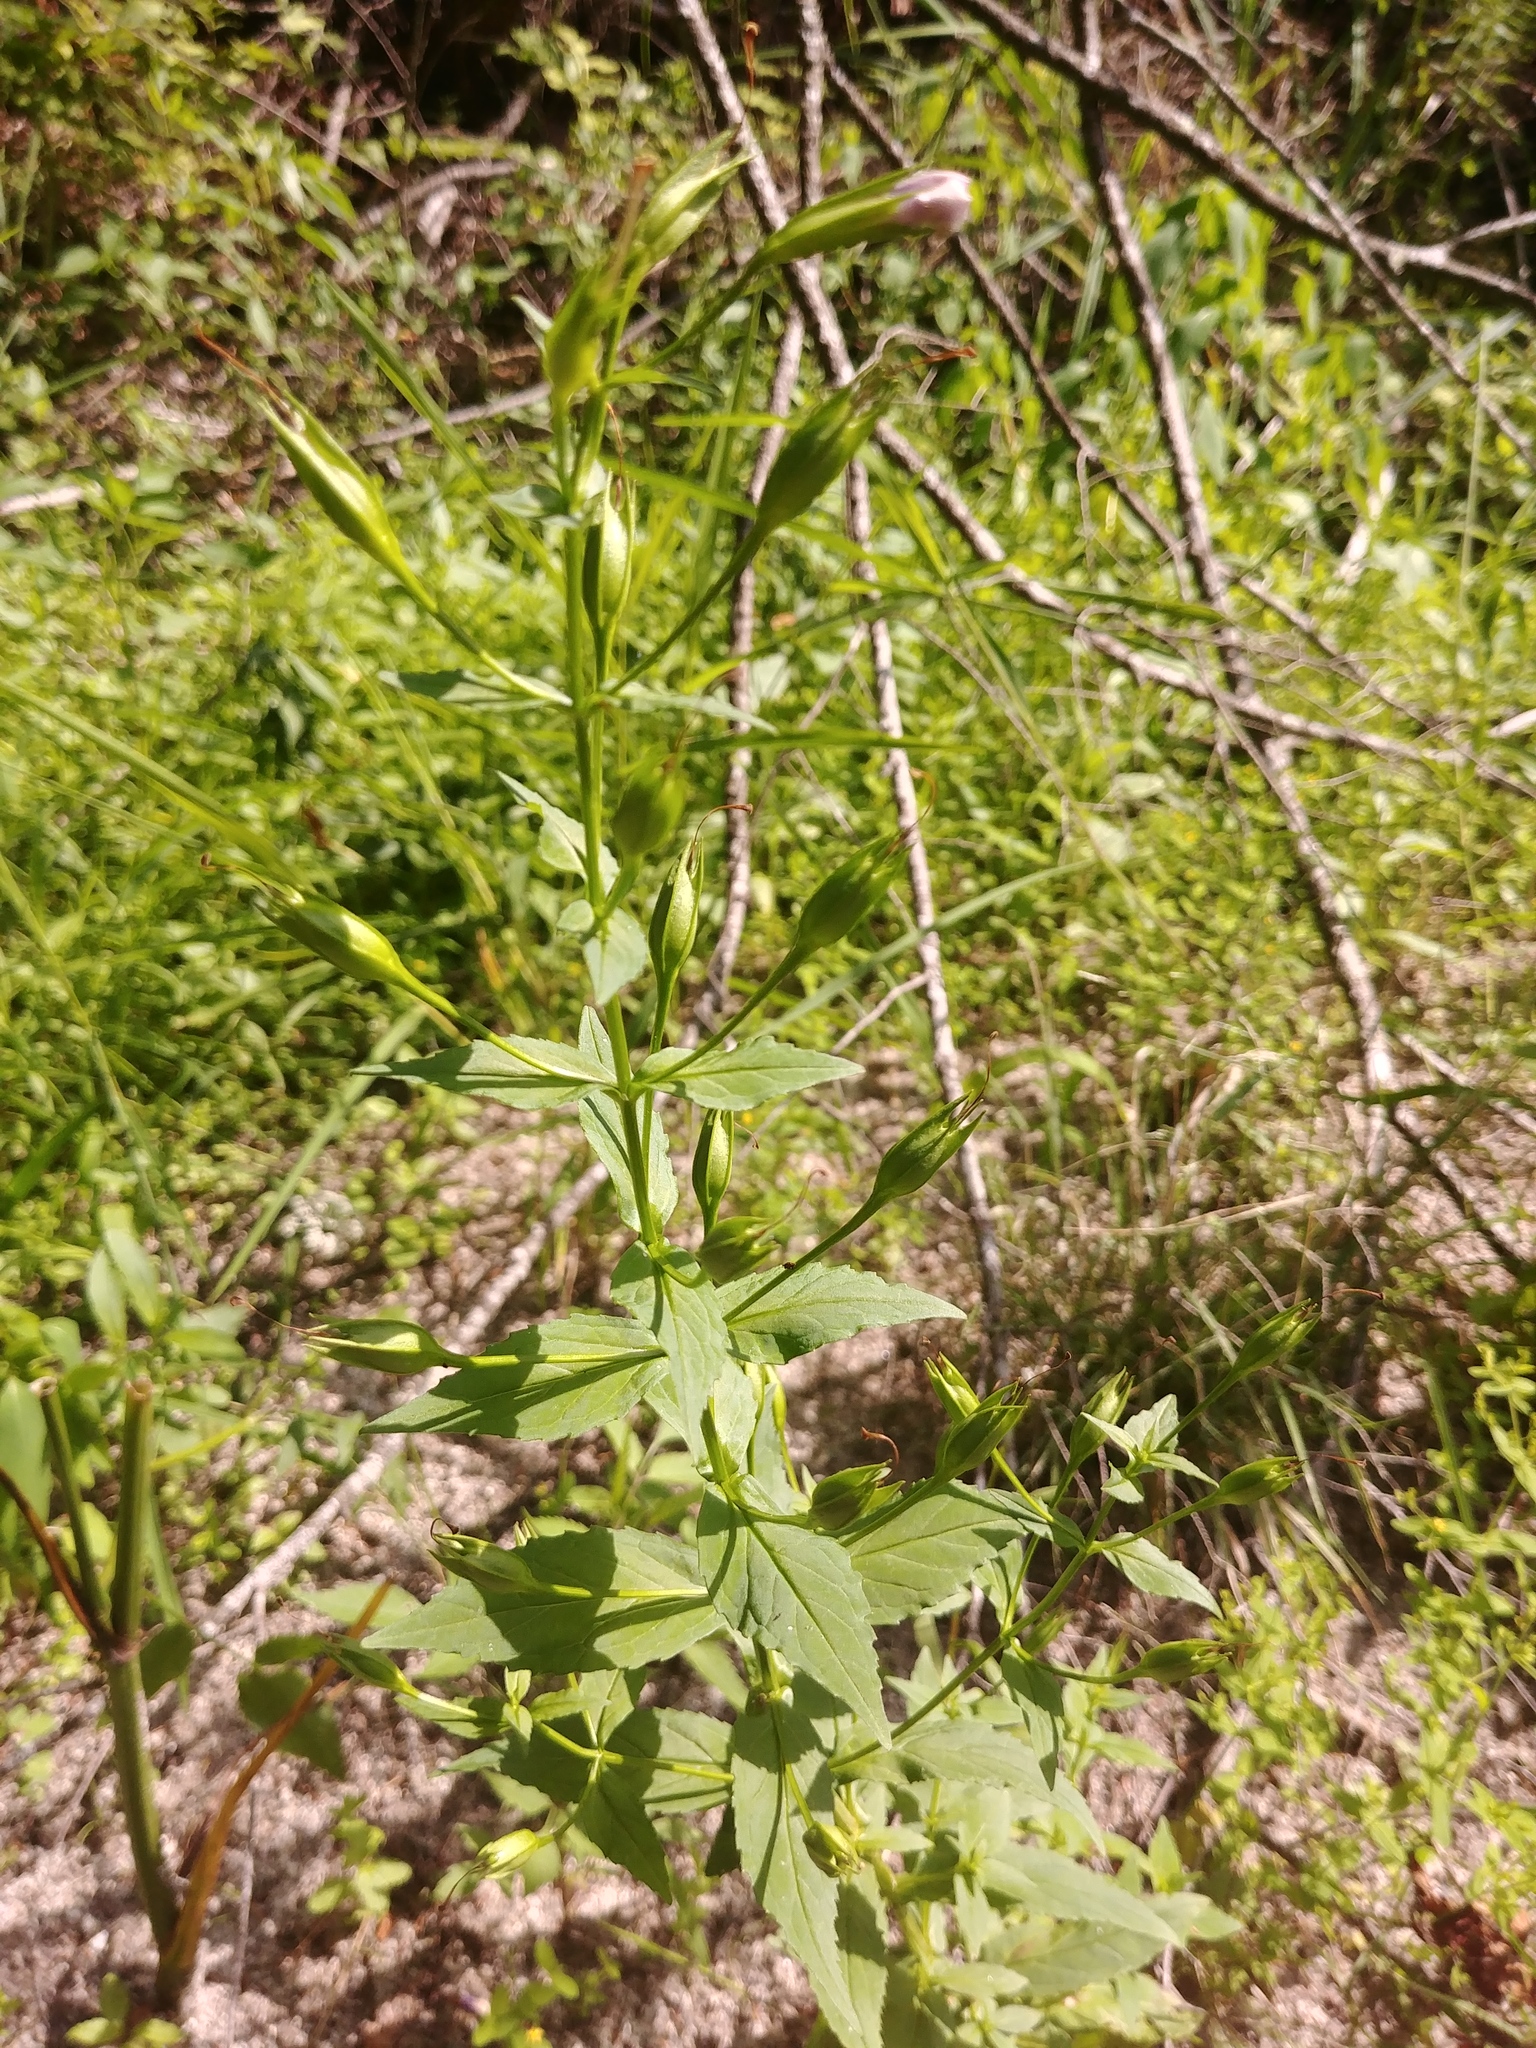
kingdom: Plantae
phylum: Tracheophyta
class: Magnoliopsida
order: Lamiales
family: Phrymaceae
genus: Mimulus
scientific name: Mimulus ringens
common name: Allegheny monkeyflower
